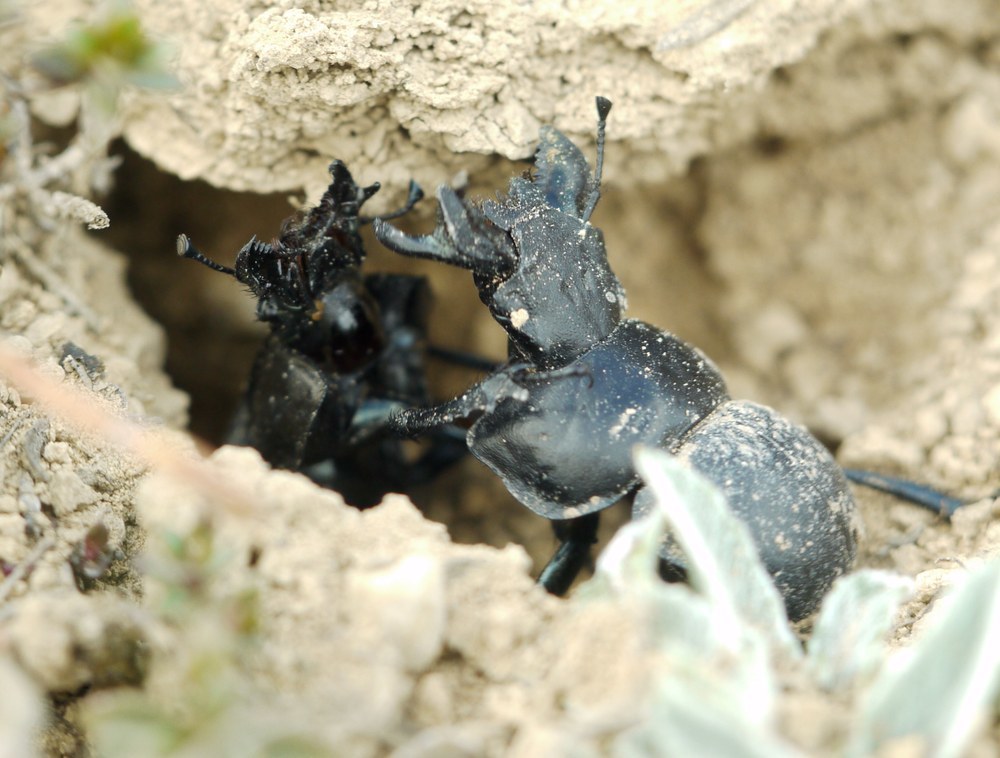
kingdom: Animalia
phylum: Arthropoda
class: Insecta
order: Coleoptera
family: Geotrupidae
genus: Lethrus
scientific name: Lethrus apterus
